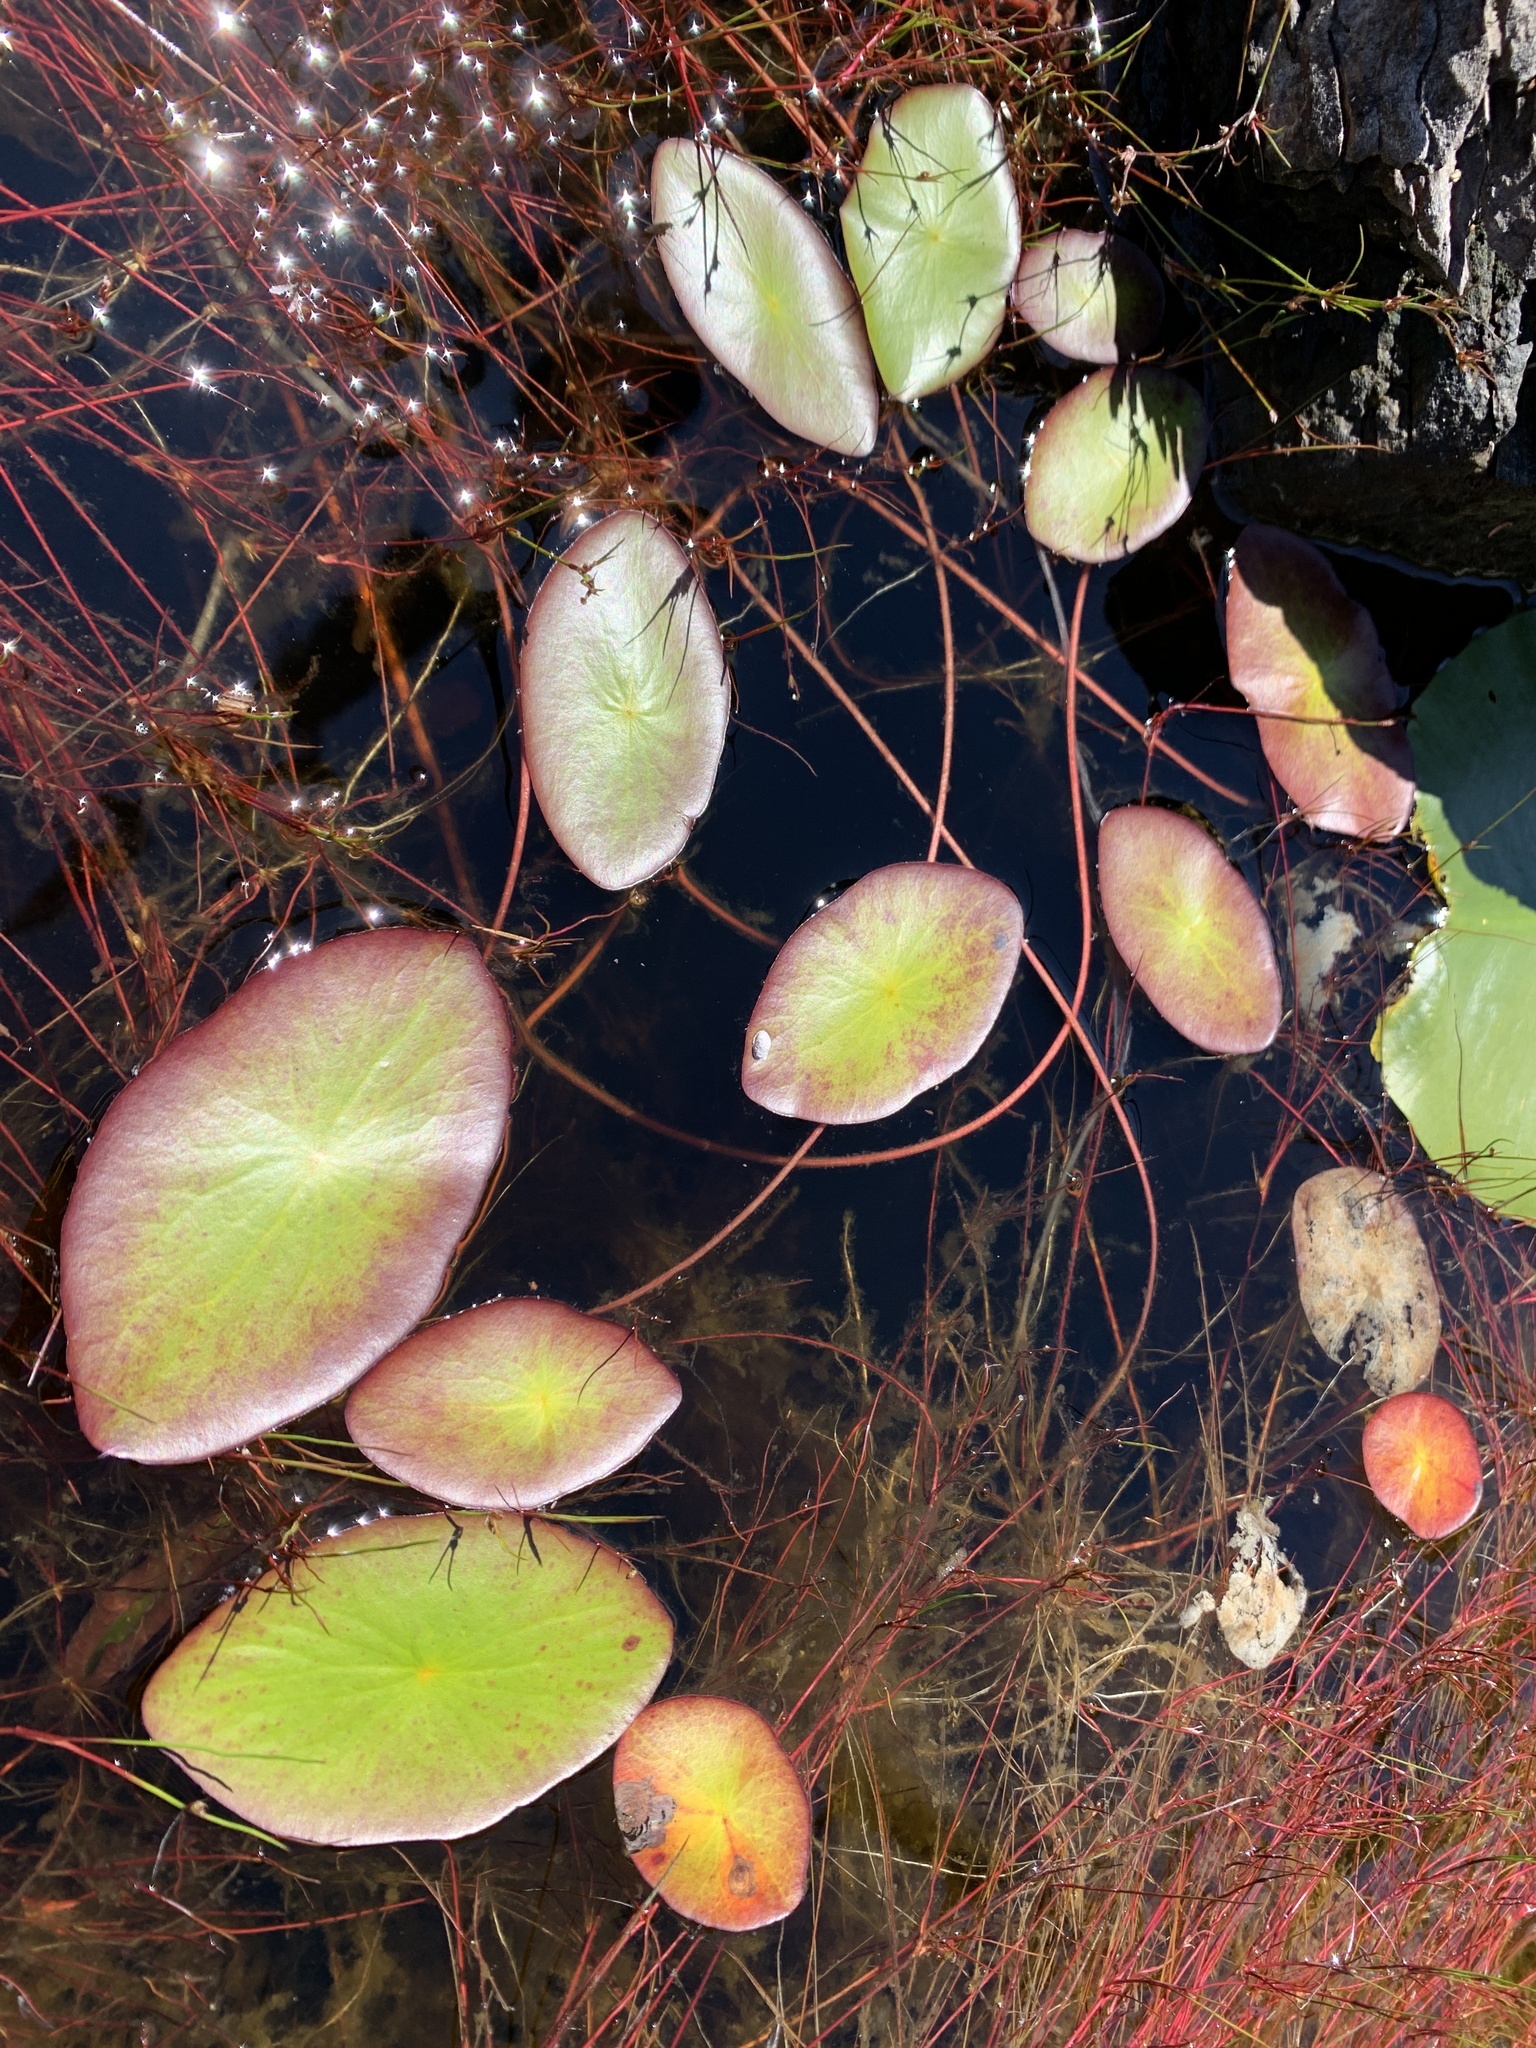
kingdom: Plantae
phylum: Tracheophyta
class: Magnoliopsida
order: Nymphaeales
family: Cabombaceae
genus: Brasenia
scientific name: Brasenia schreberi
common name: Water-shield
